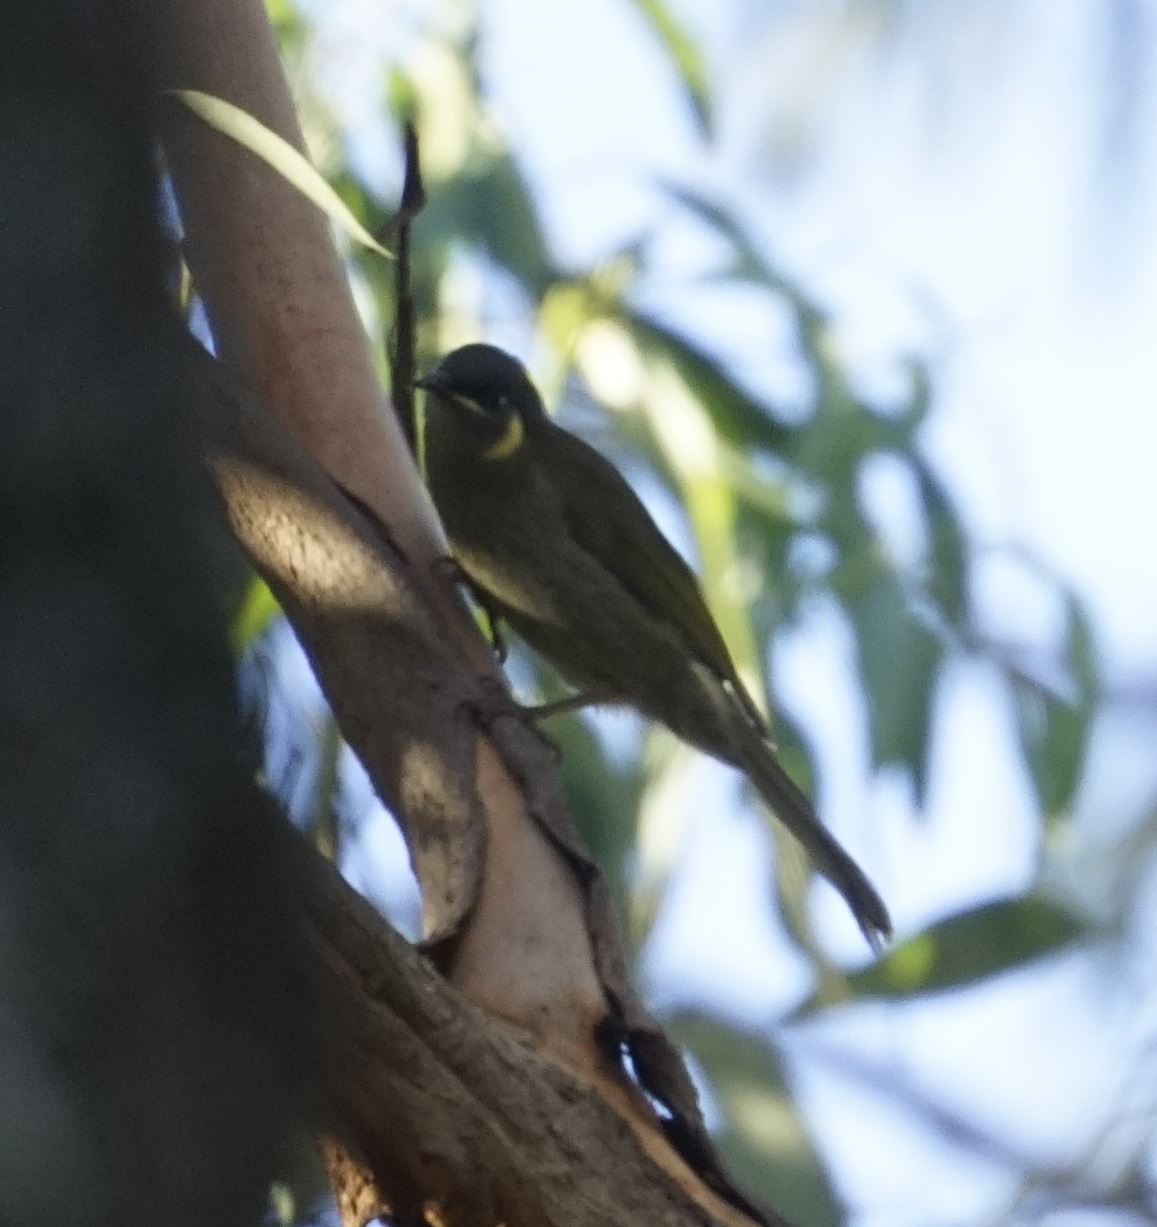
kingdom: Animalia
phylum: Chordata
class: Aves
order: Passeriformes
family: Meliphagidae
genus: Meliphaga
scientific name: Meliphaga lewinii
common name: Lewin's honeyeater
